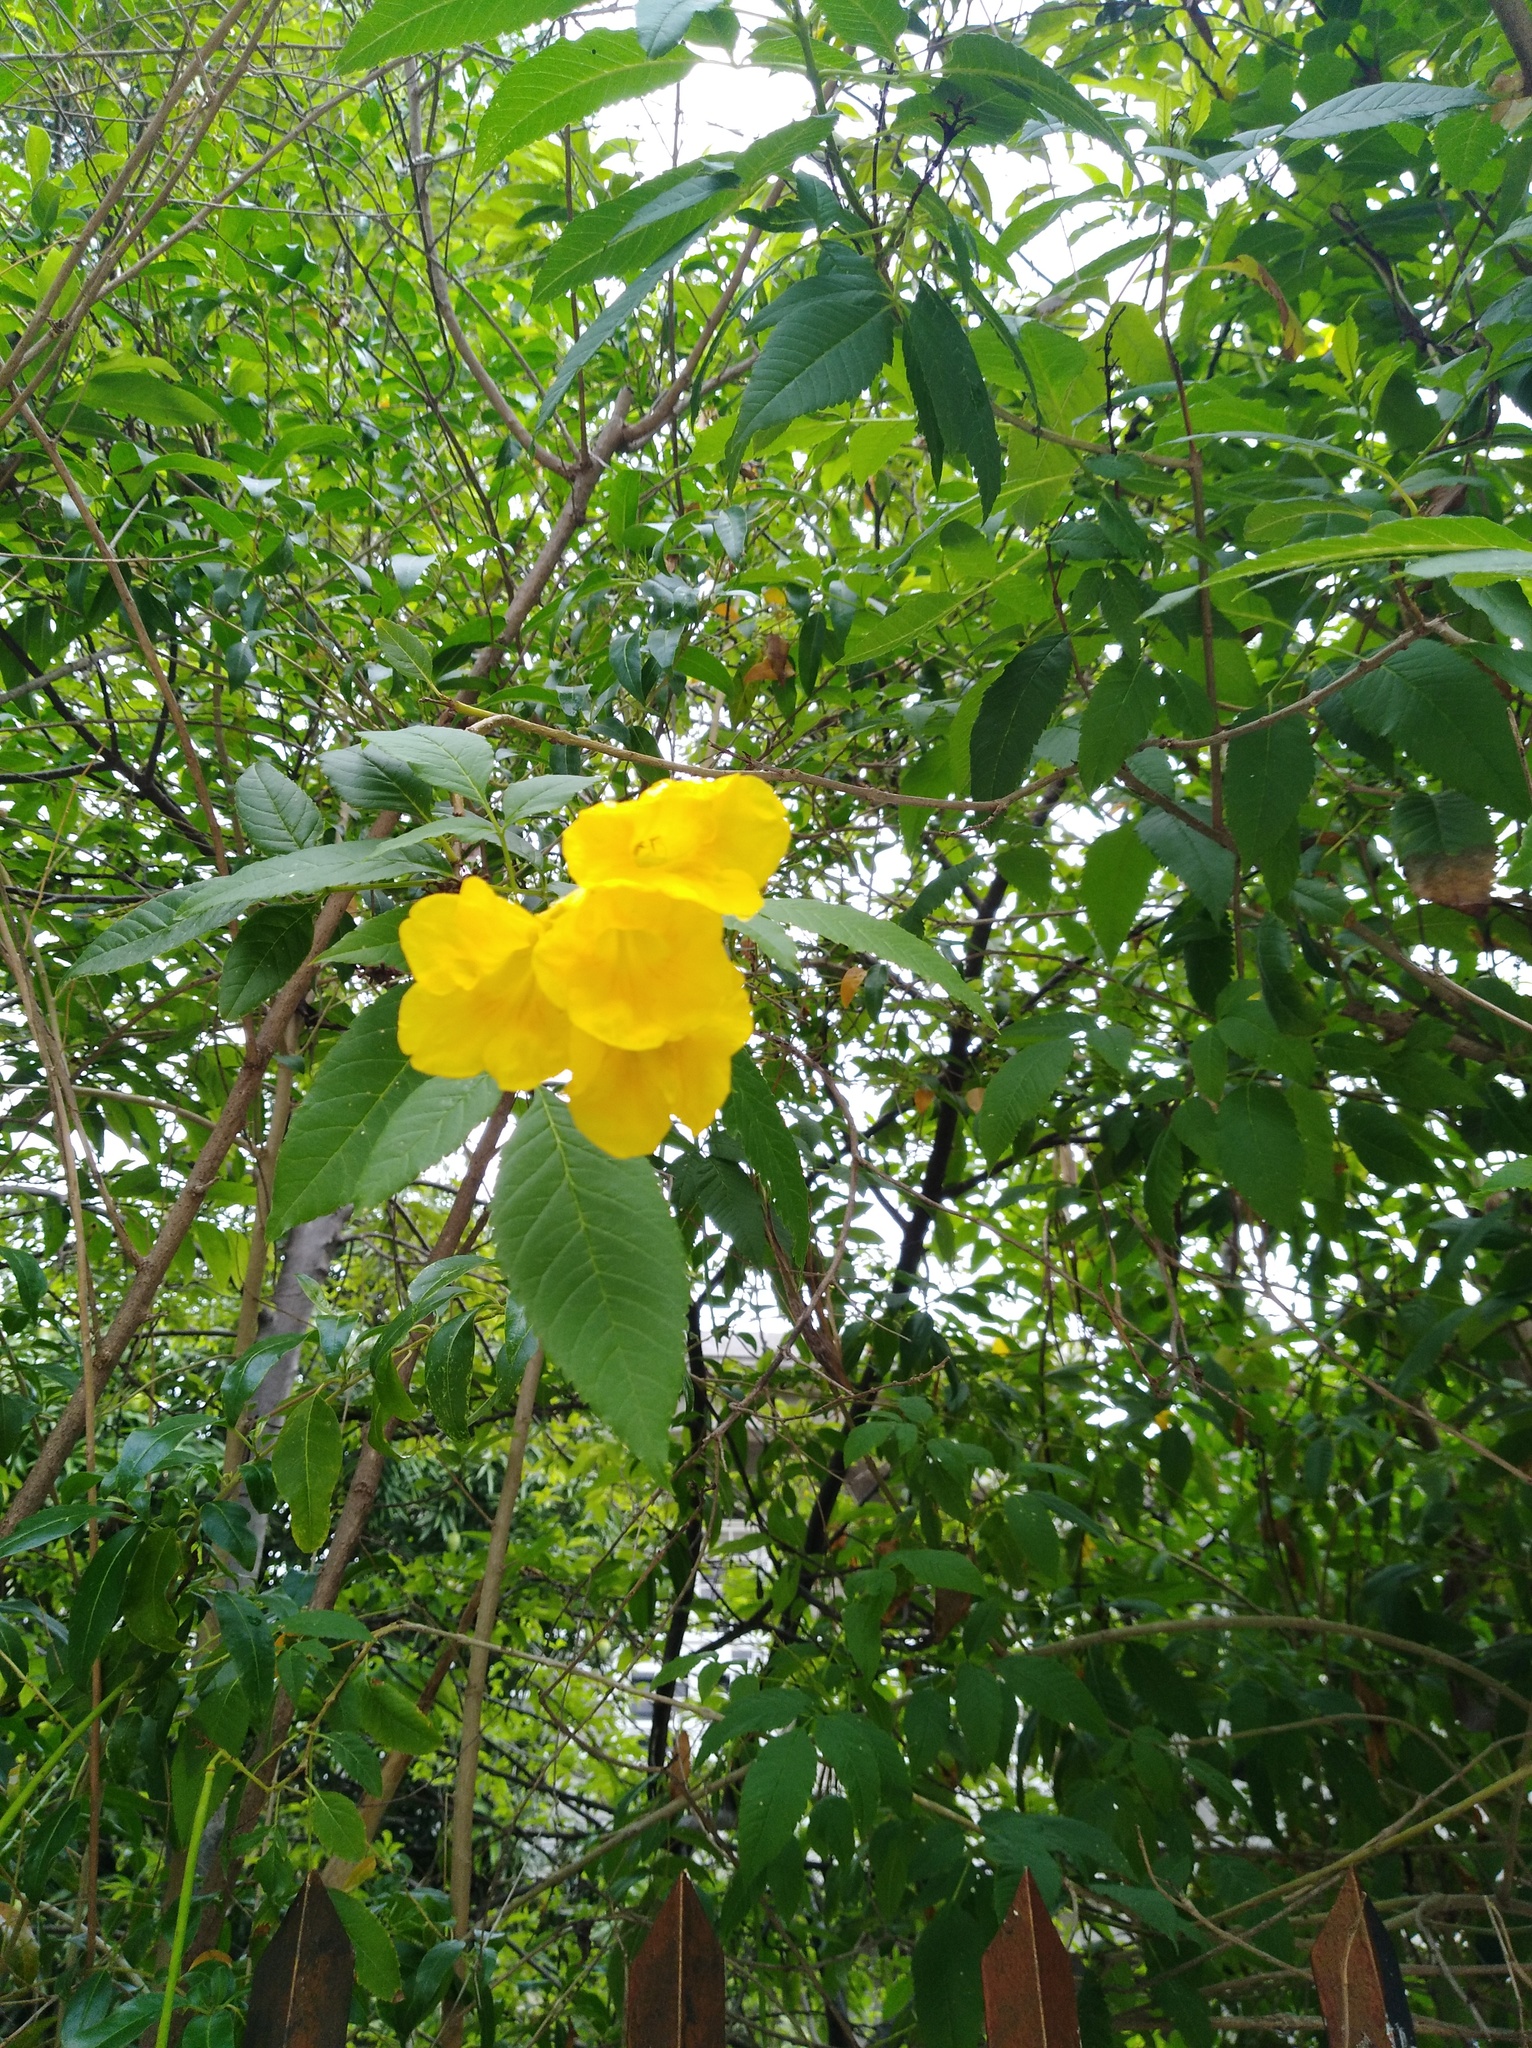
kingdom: Plantae
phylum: Tracheophyta
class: Magnoliopsida
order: Lamiales
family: Bignoniaceae
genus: Tecoma
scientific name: Tecoma stans
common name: Yellow trumpetbush
